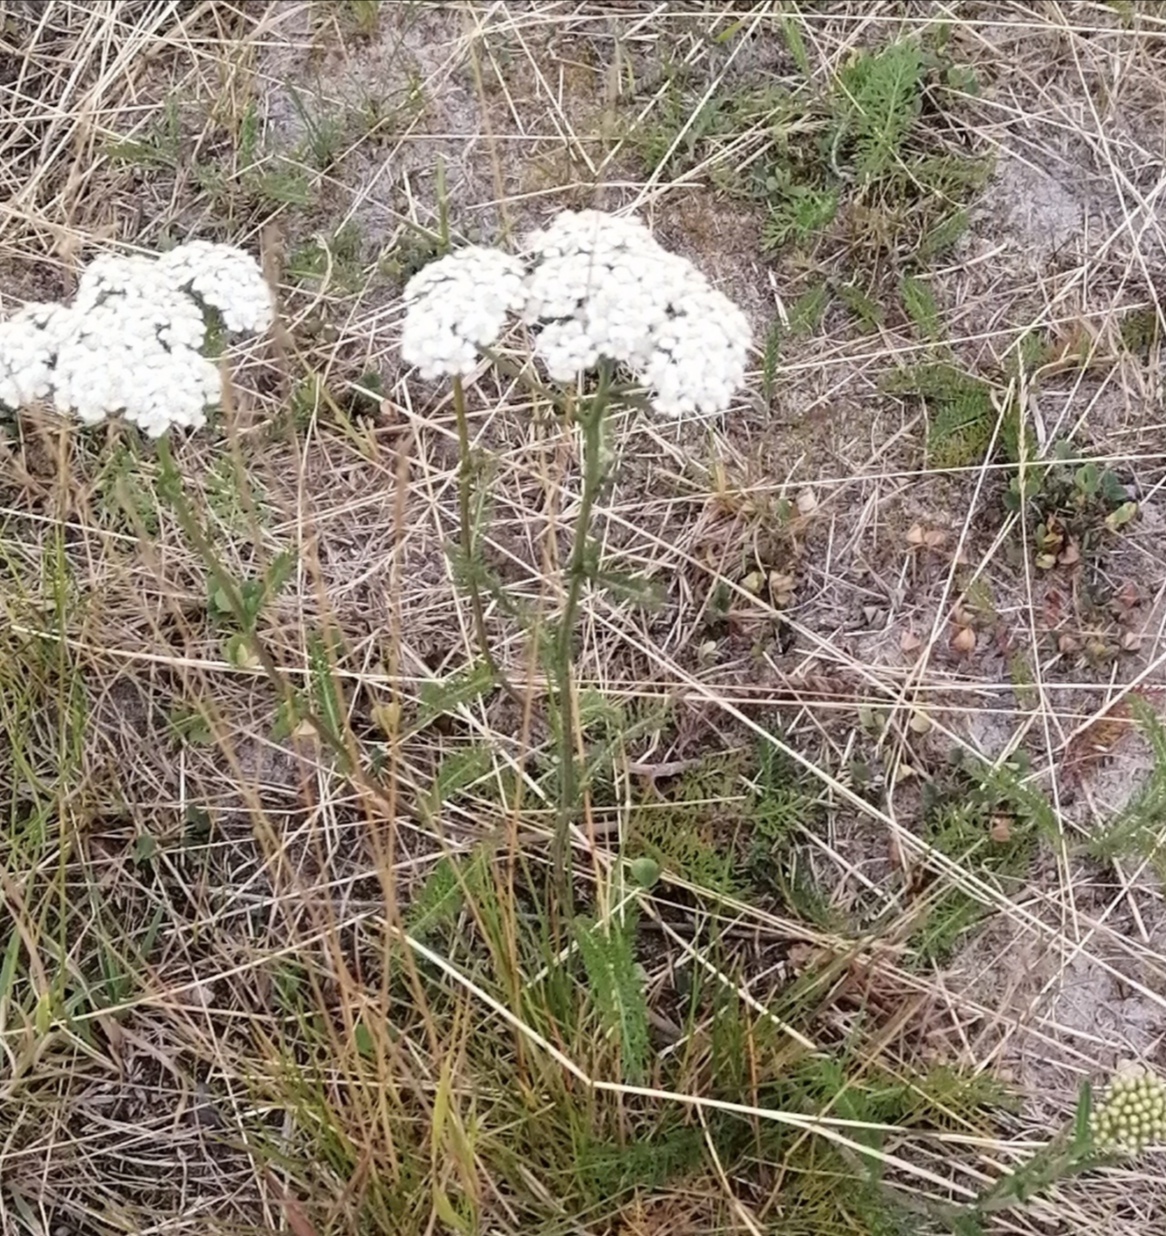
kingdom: Plantae
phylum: Tracheophyta
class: Magnoliopsida
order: Asterales
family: Asteraceae
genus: Achillea
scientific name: Achillea millefolium
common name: Yarrow
